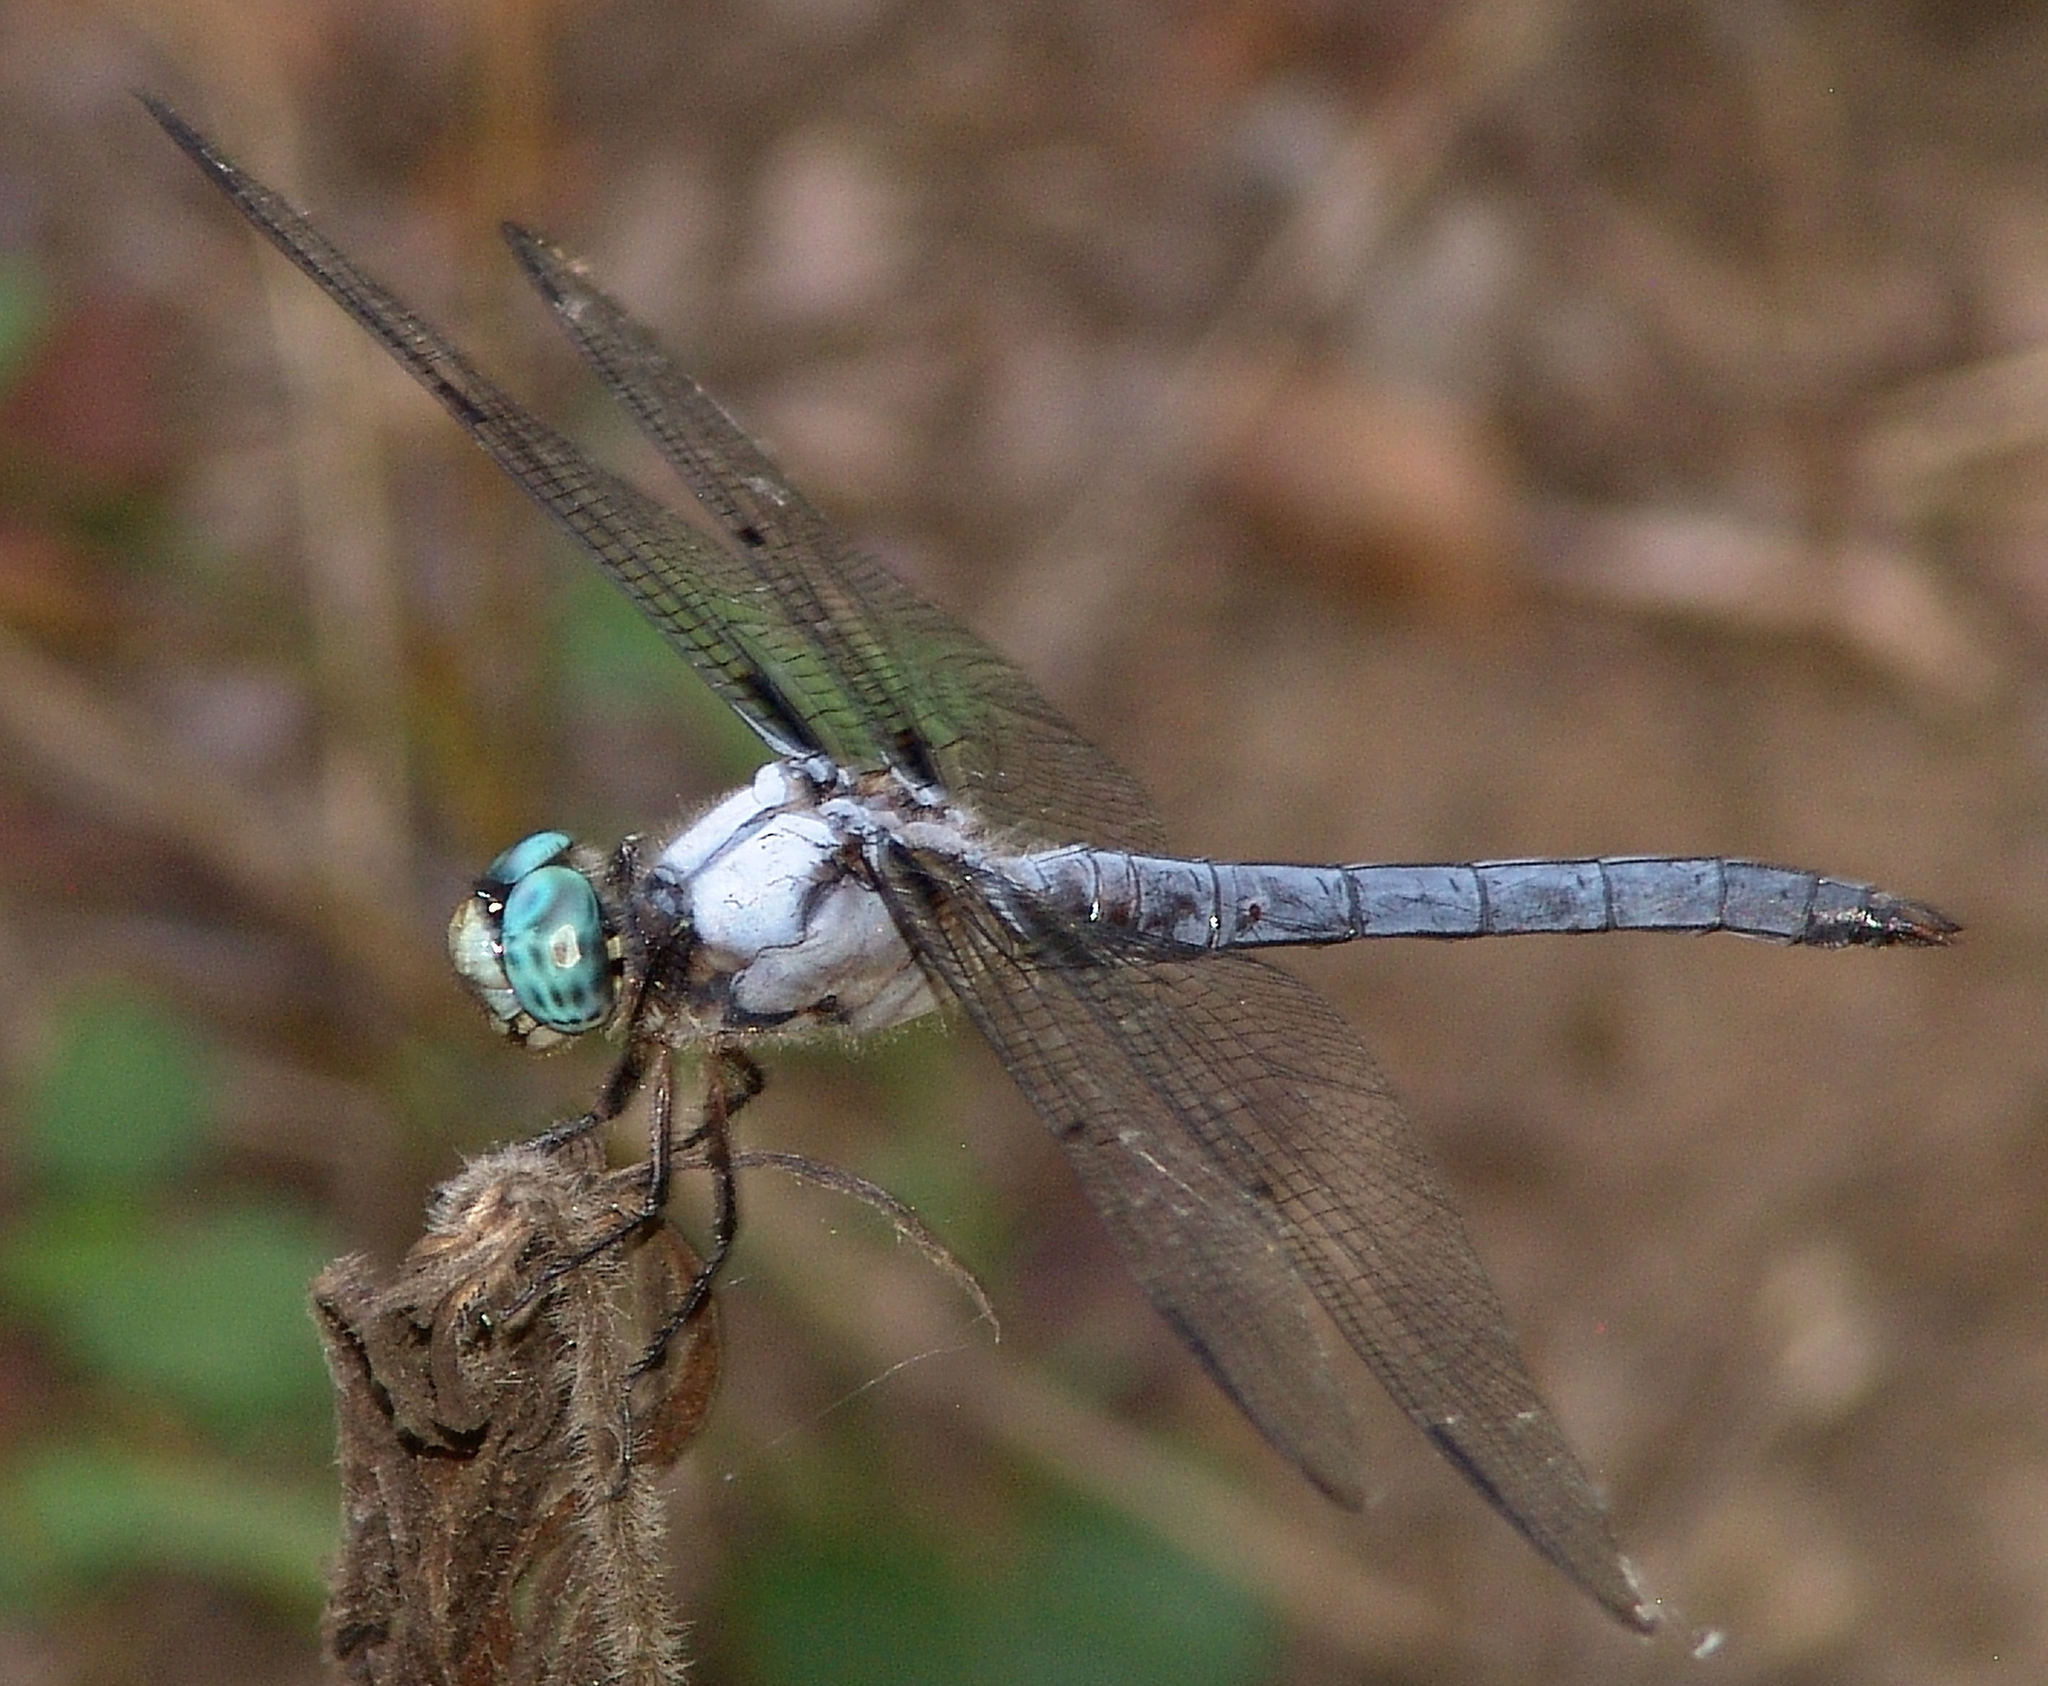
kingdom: Animalia
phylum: Arthropoda
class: Insecta
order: Odonata
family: Libellulidae
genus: Libellula
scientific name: Libellula vibrans
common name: Great blue skimmer
